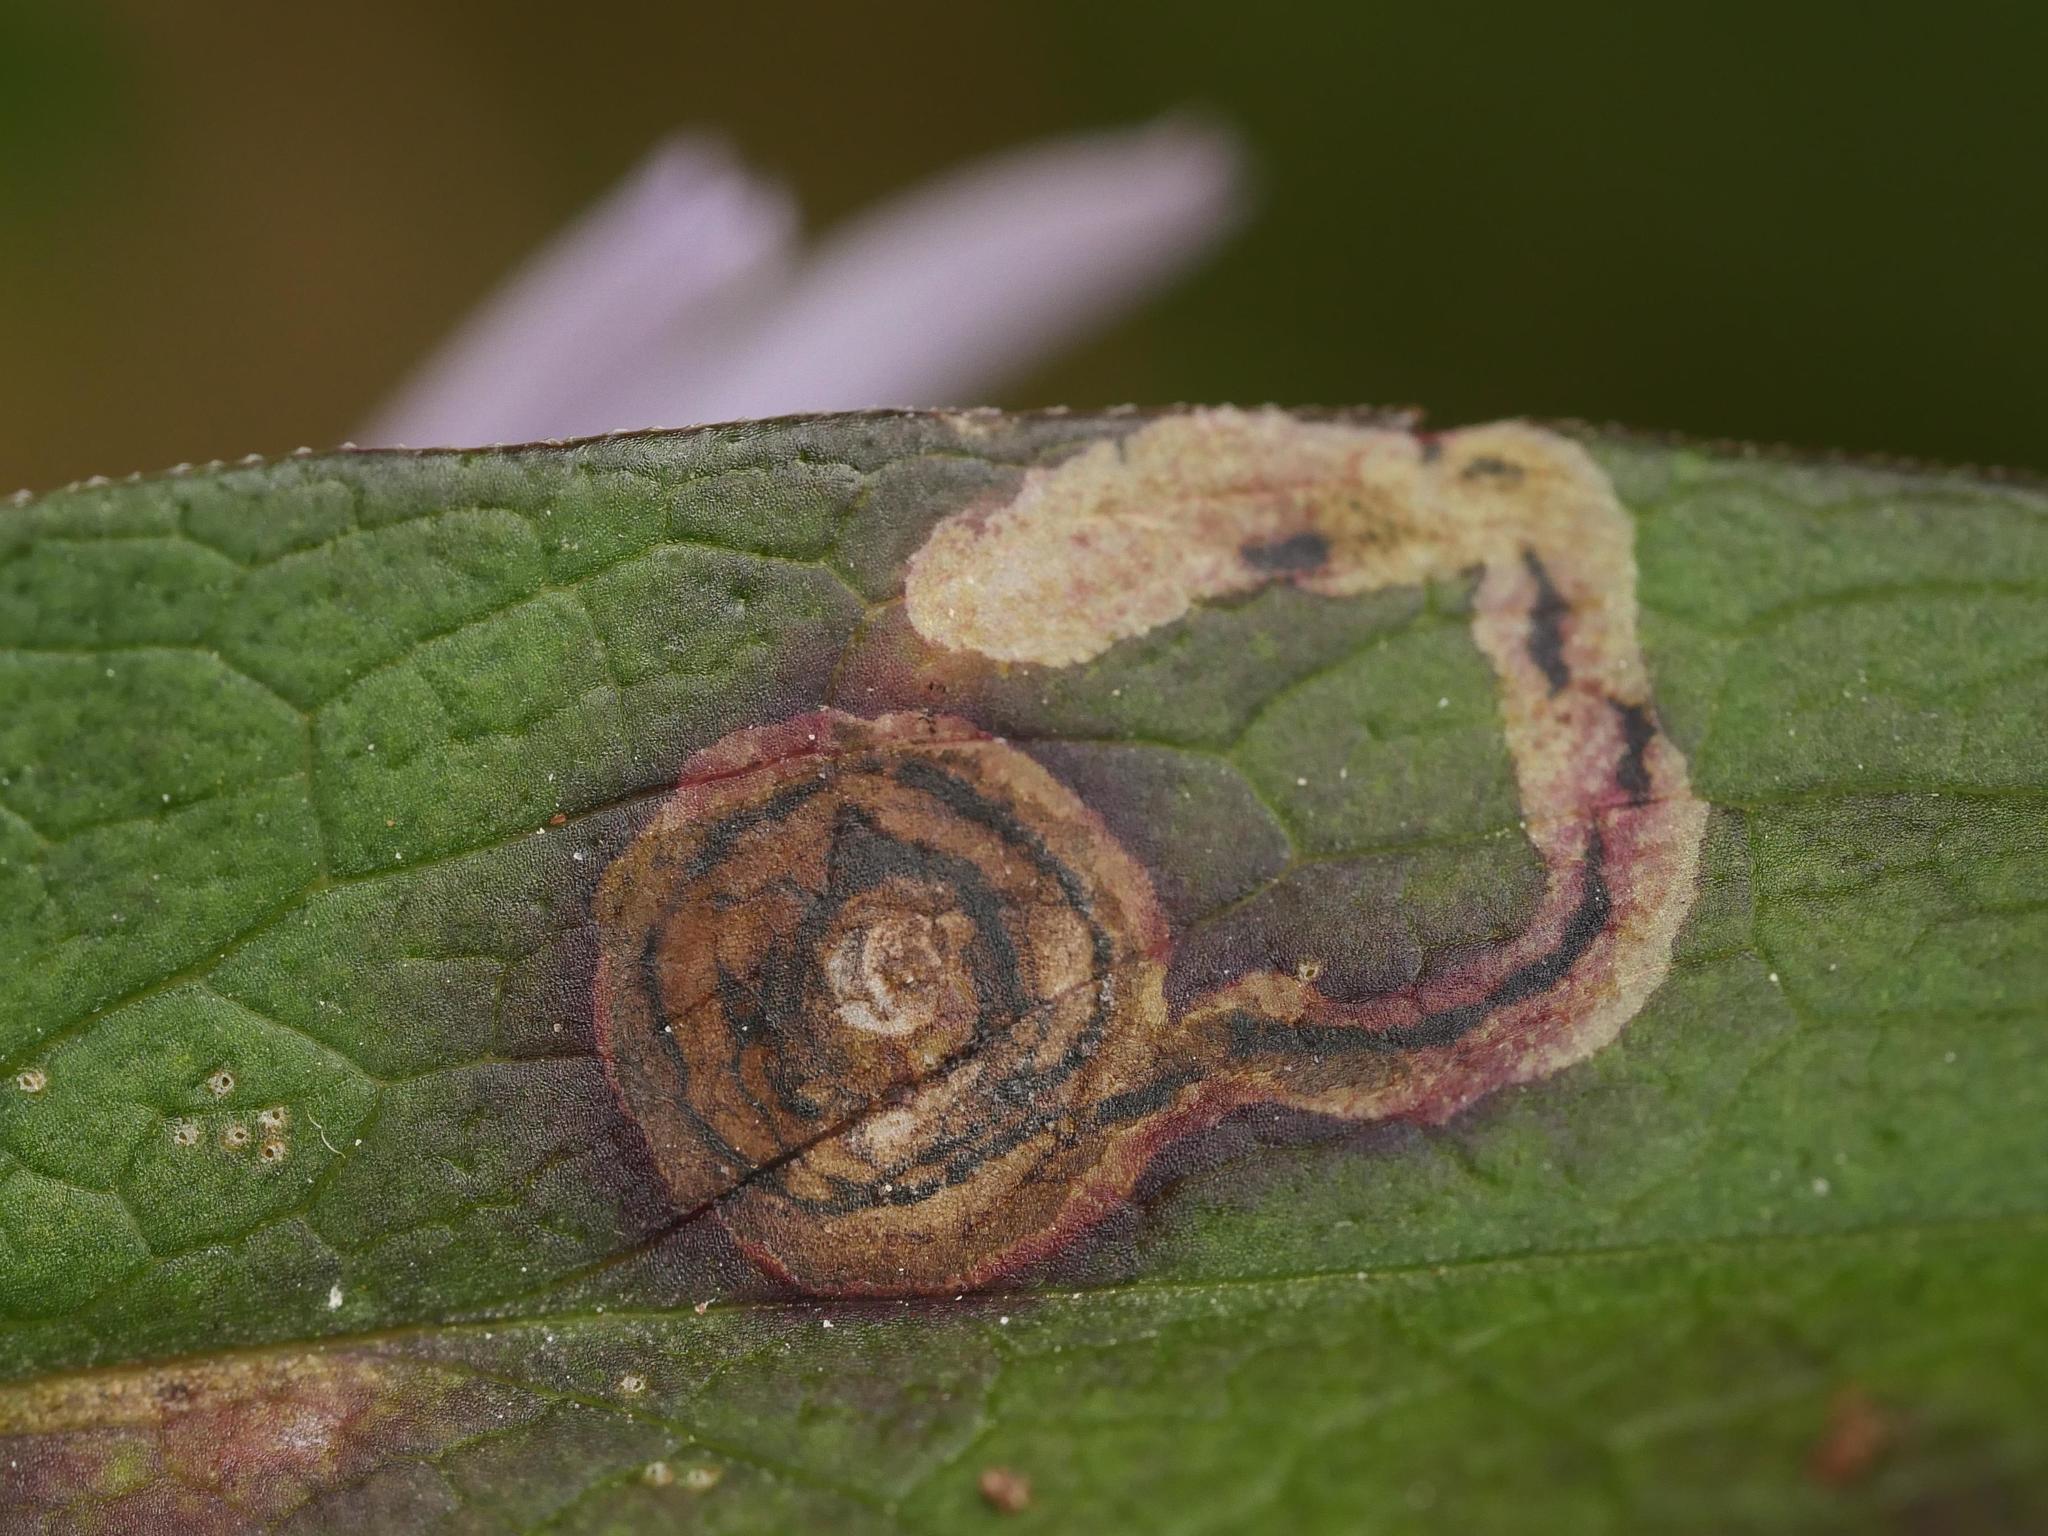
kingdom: Animalia
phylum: Arthropoda
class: Insecta
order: Diptera
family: Agromyzidae
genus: Liriomyza
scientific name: Liriomyza eupatorii
